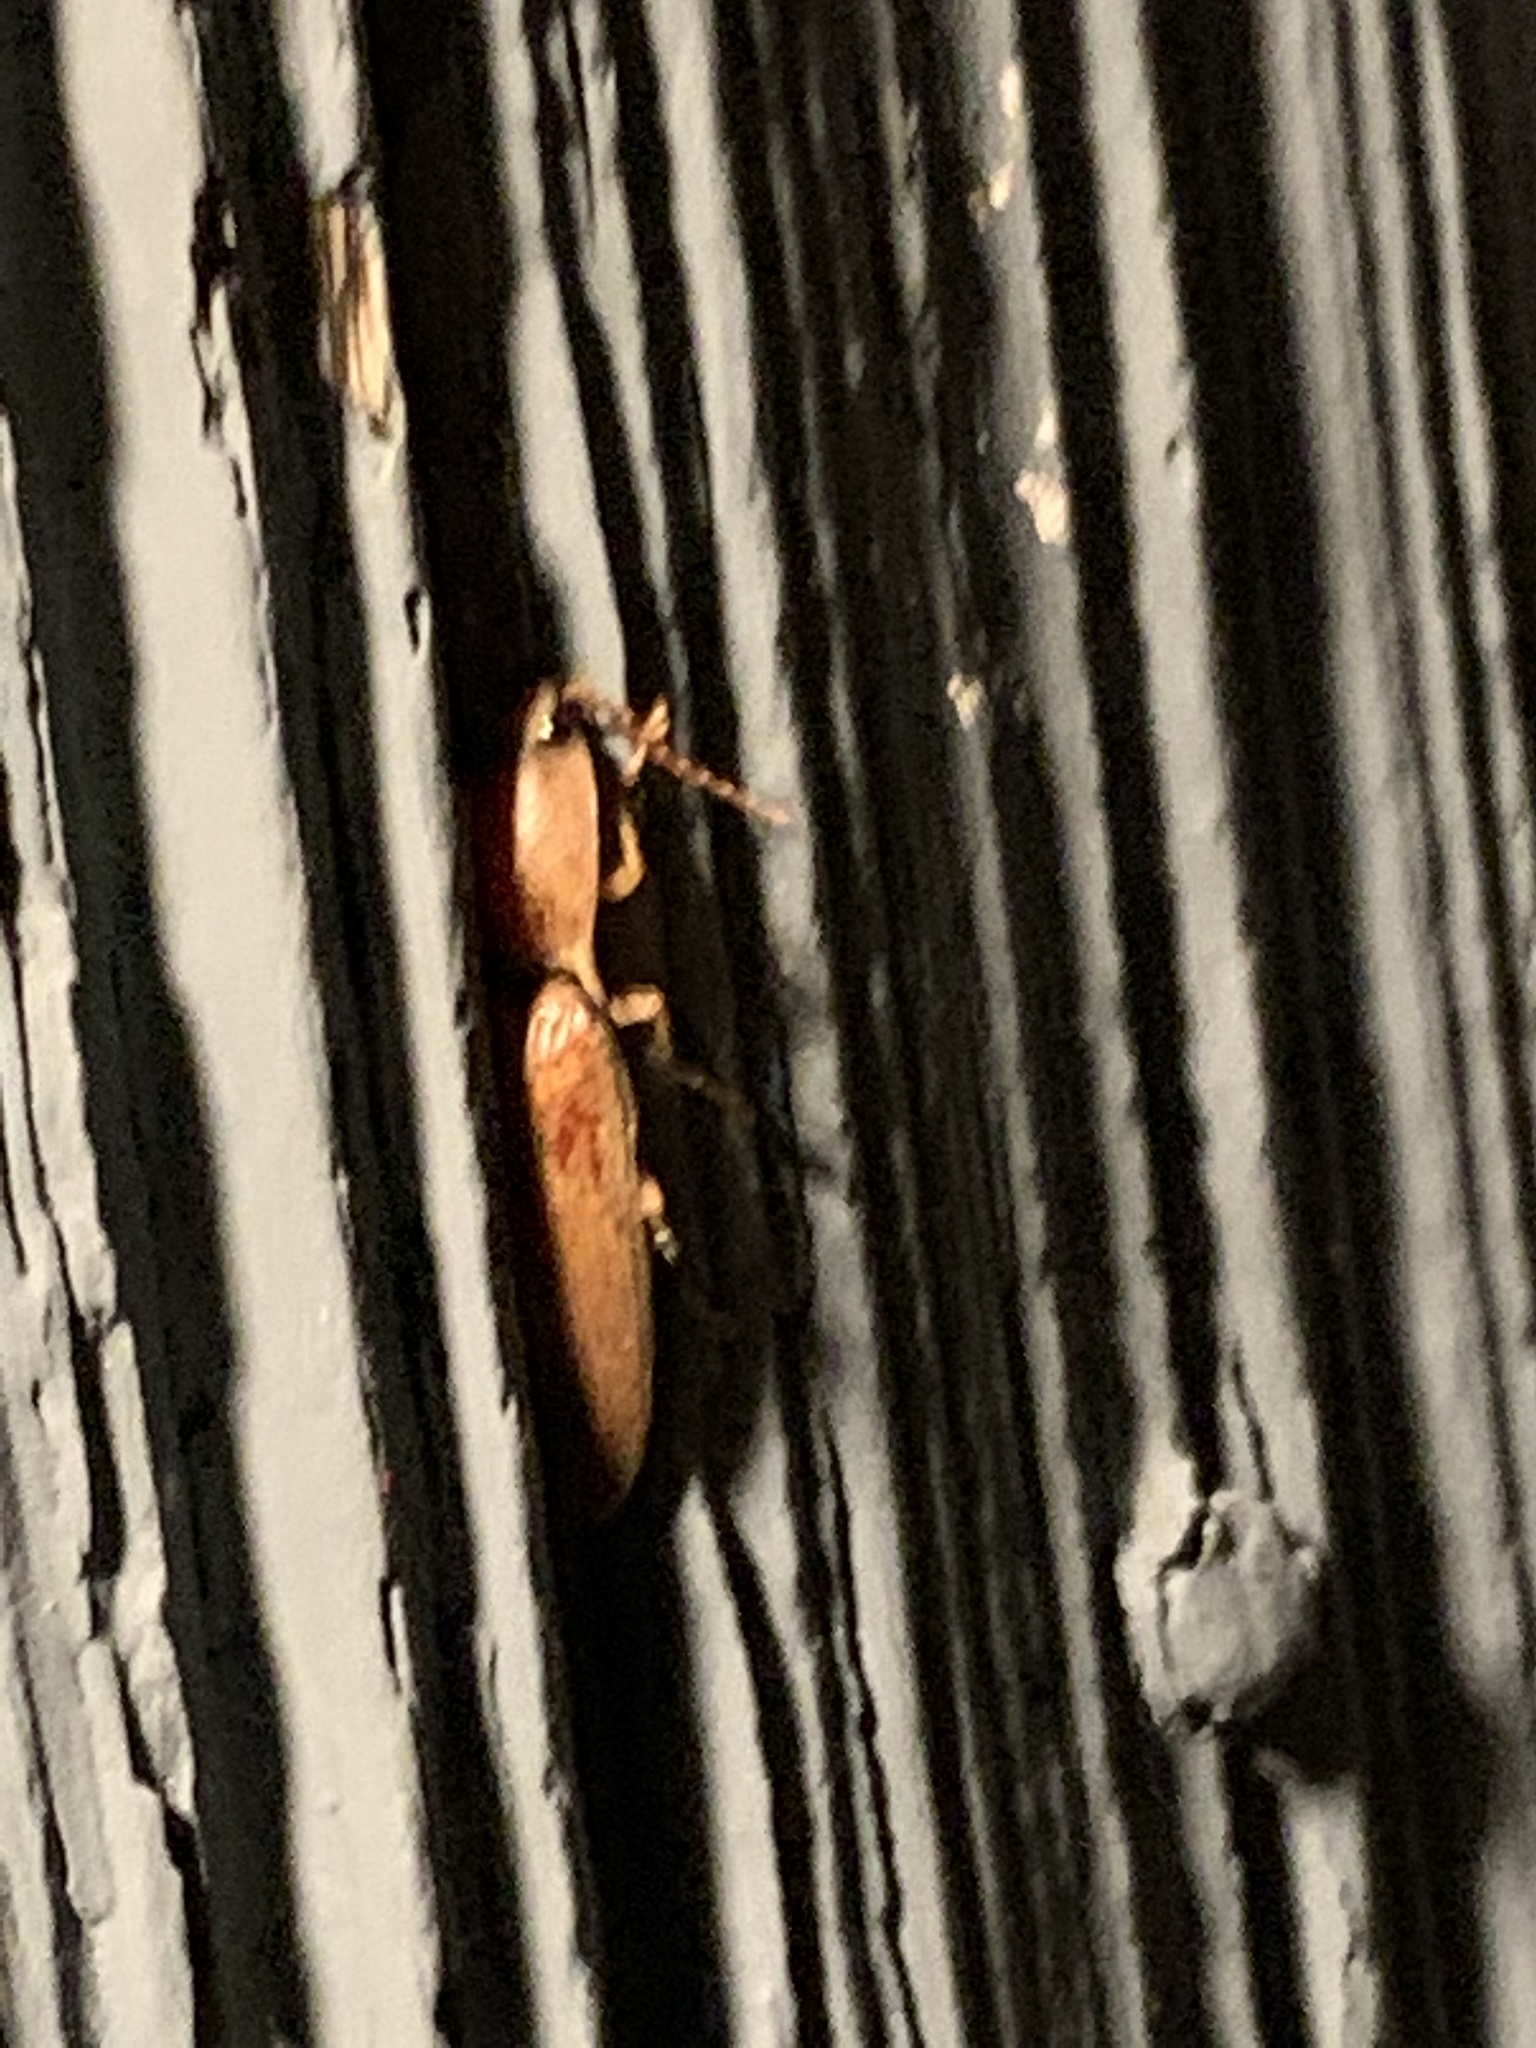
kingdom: Animalia
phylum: Arthropoda
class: Insecta
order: Coleoptera
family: Elateridae
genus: Monocrepidius
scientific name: Monocrepidius lividus
